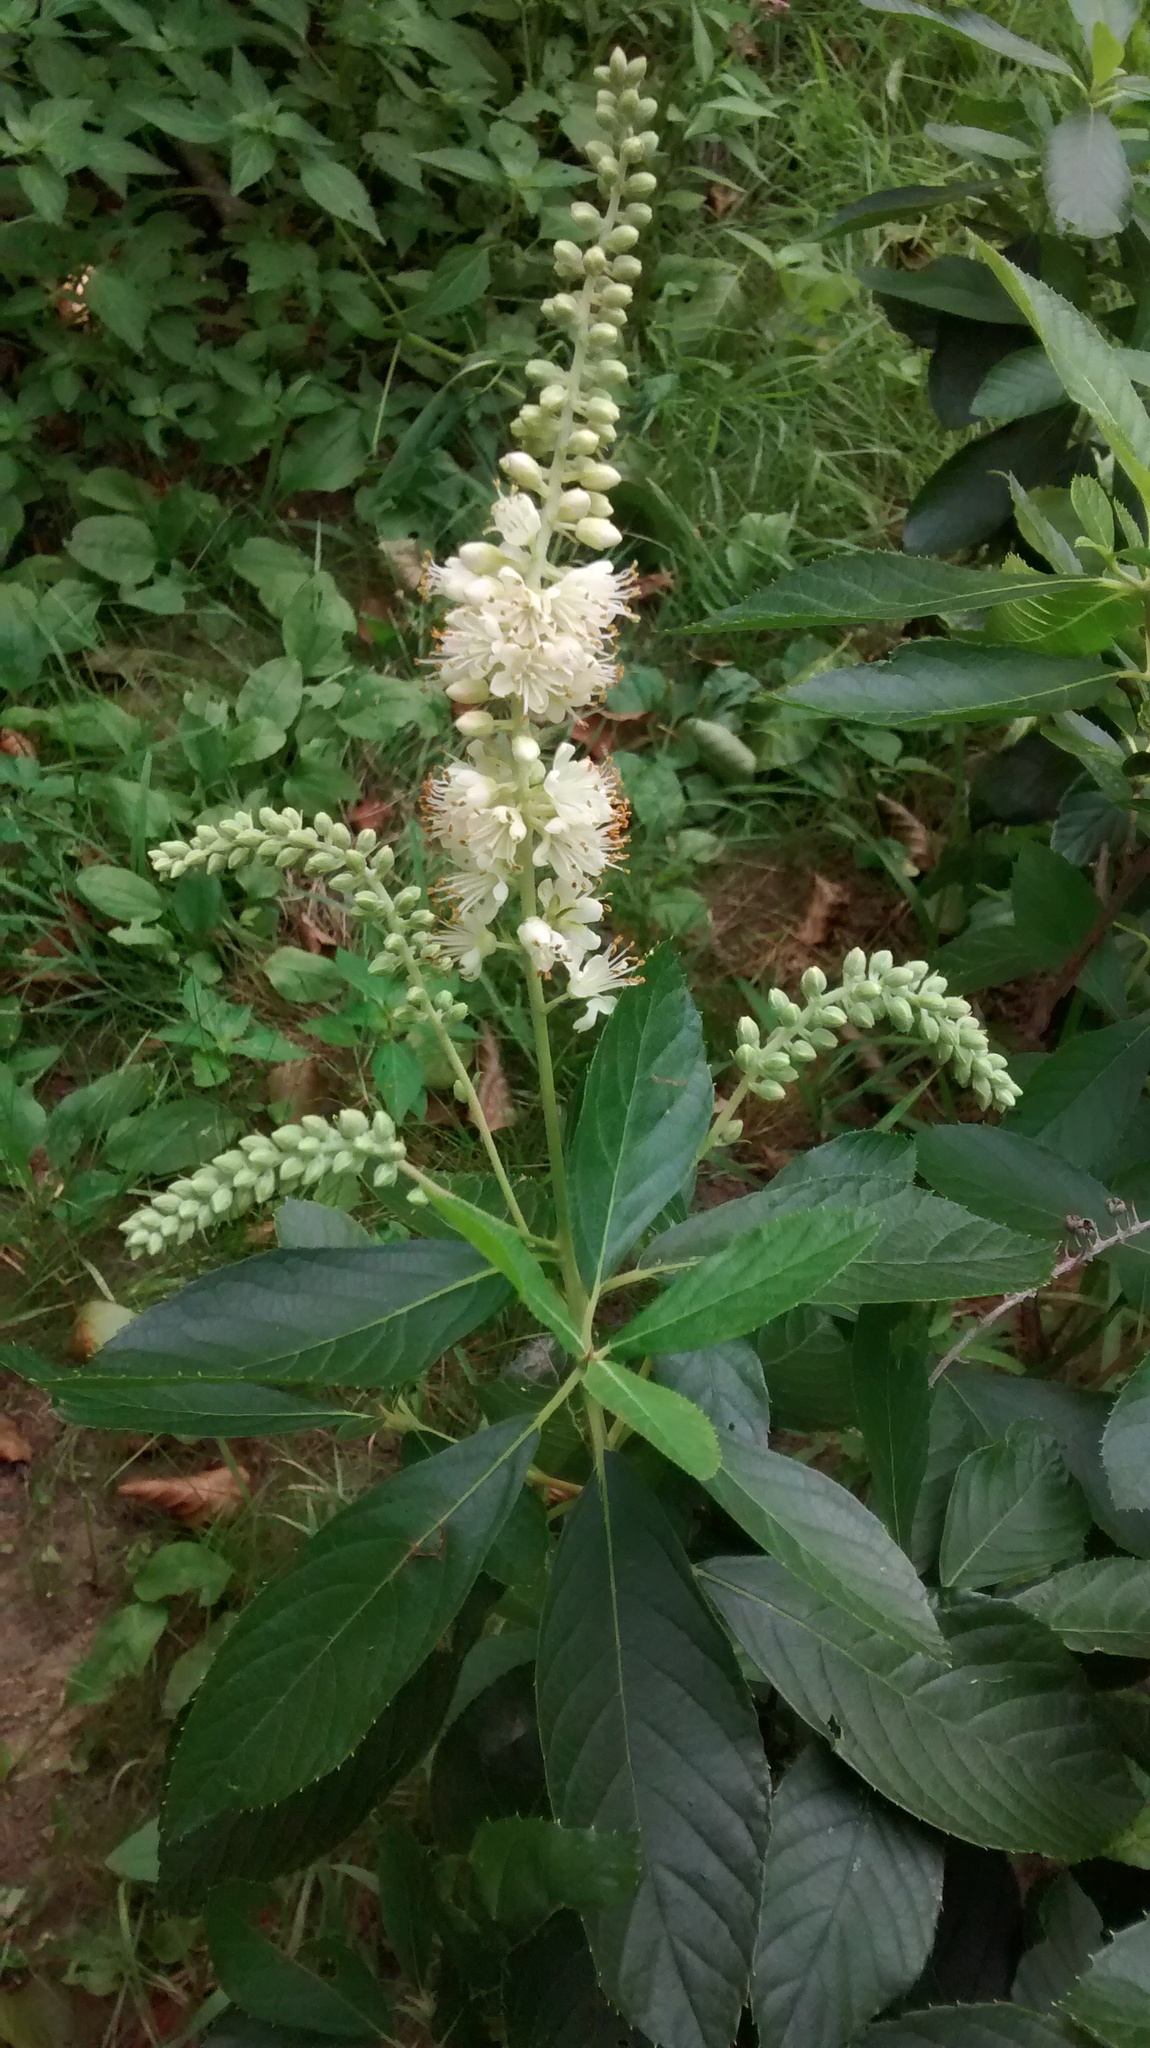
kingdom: Plantae
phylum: Tracheophyta
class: Magnoliopsida
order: Ericales
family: Clethraceae
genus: Clethra
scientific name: Clethra alnifolia
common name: Sweet pepperbush
